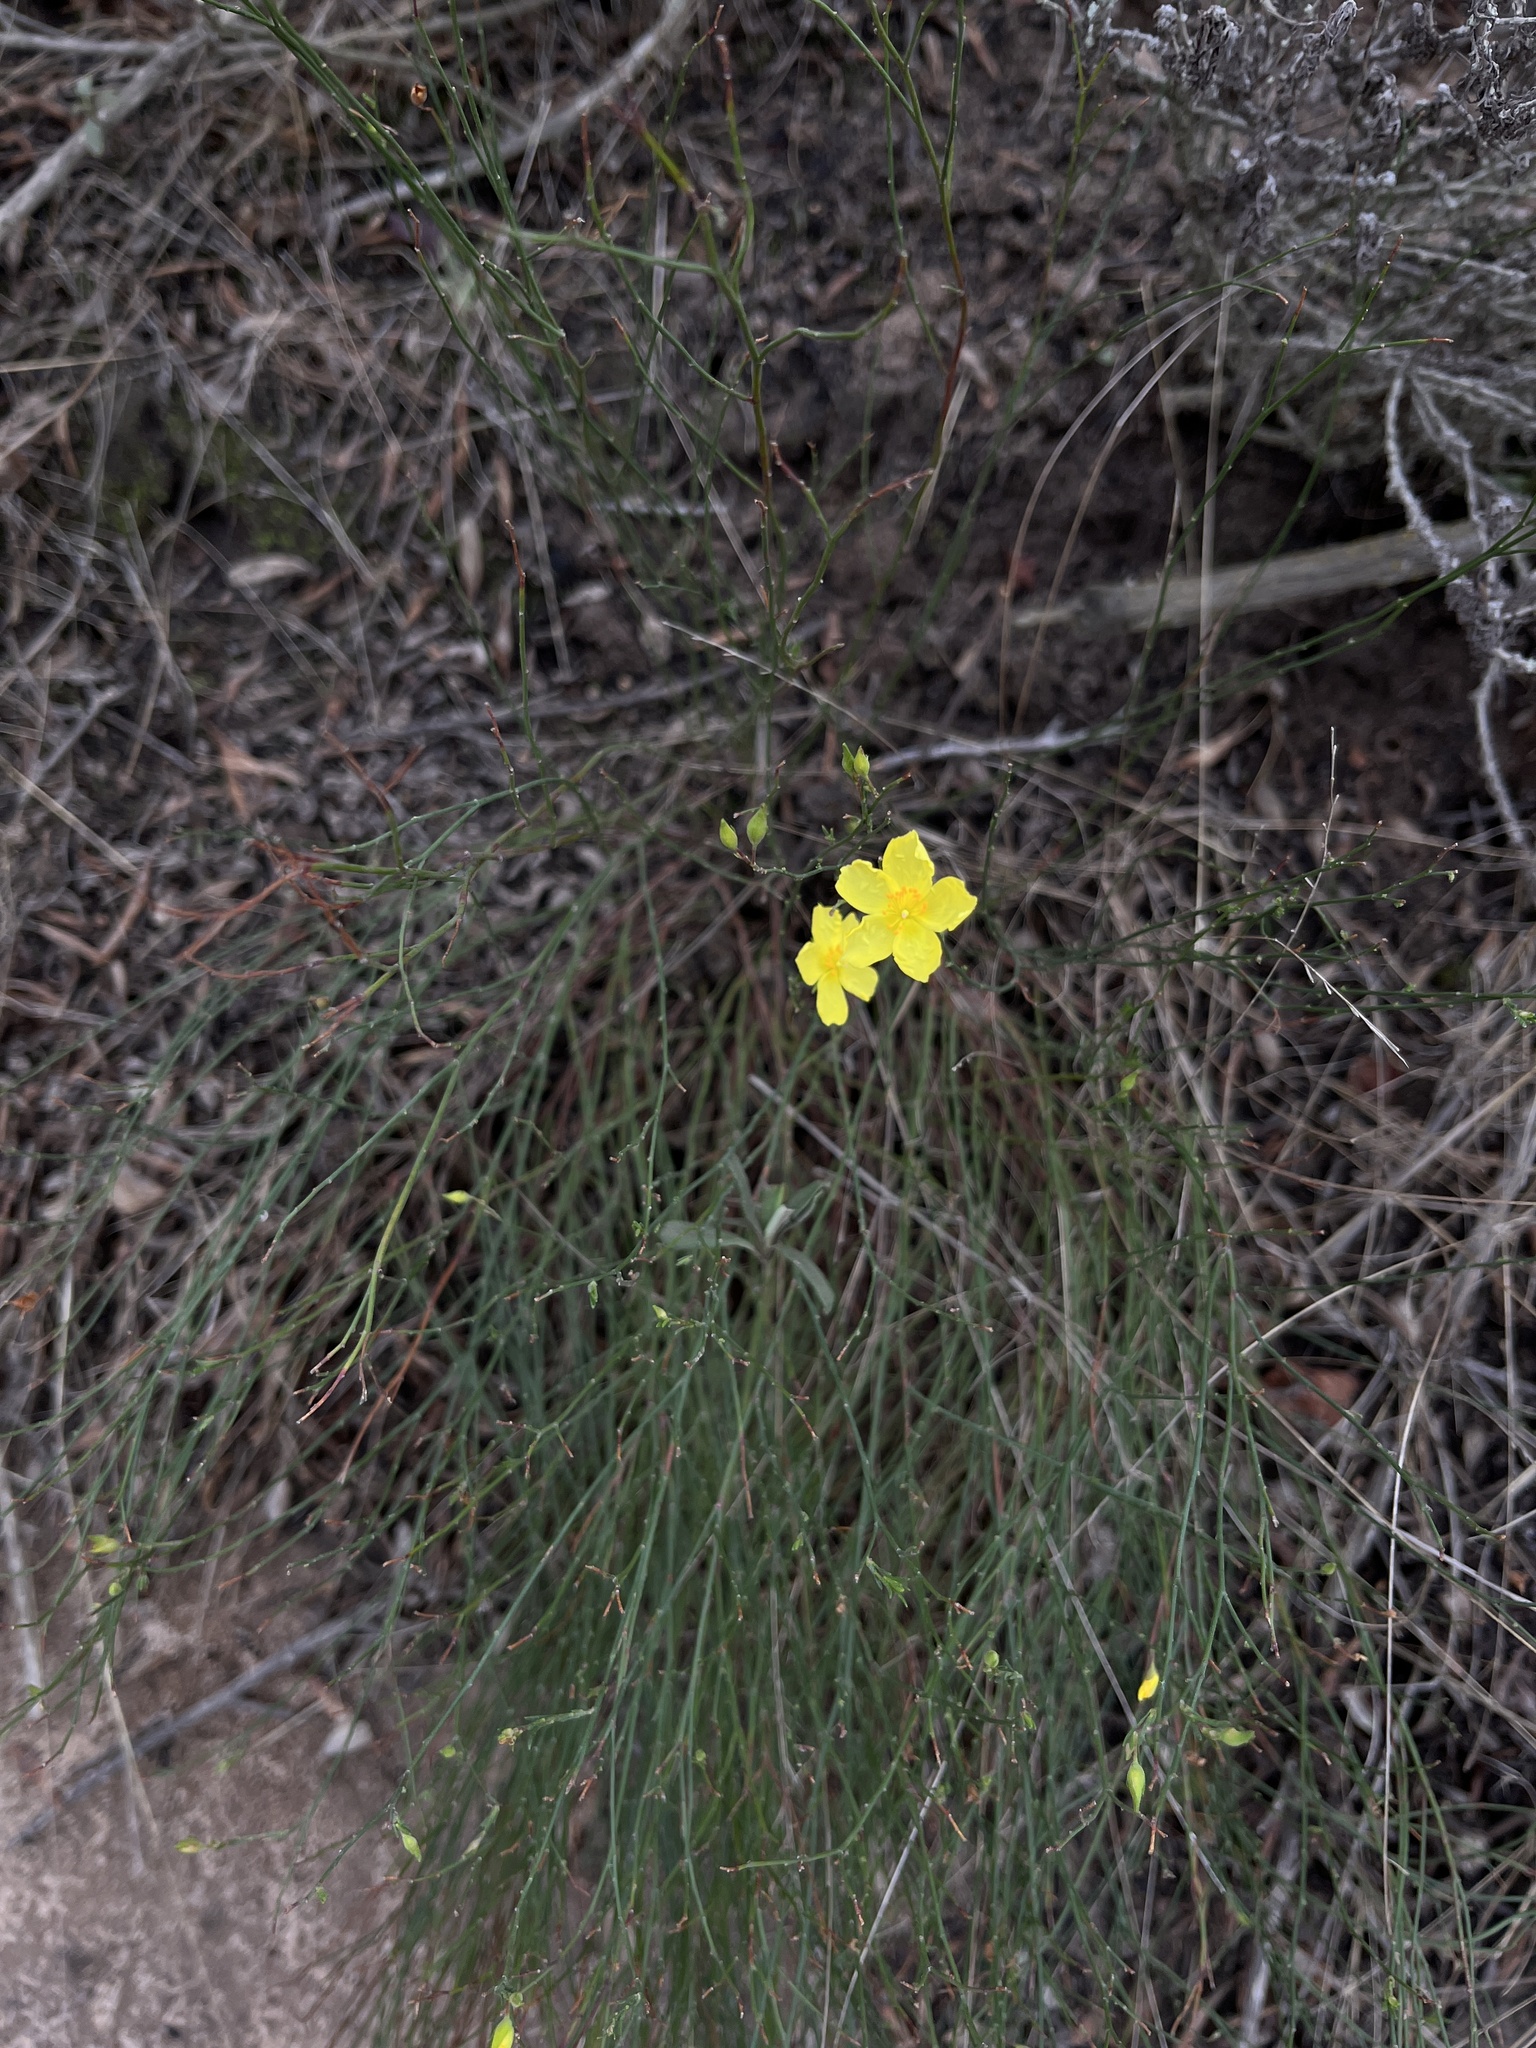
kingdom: Plantae
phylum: Tracheophyta
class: Magnoliopsida
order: Malvales
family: Cistaceae
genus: Crocanthemum
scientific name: Crocanthemum scoparium
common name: Broom-rose
